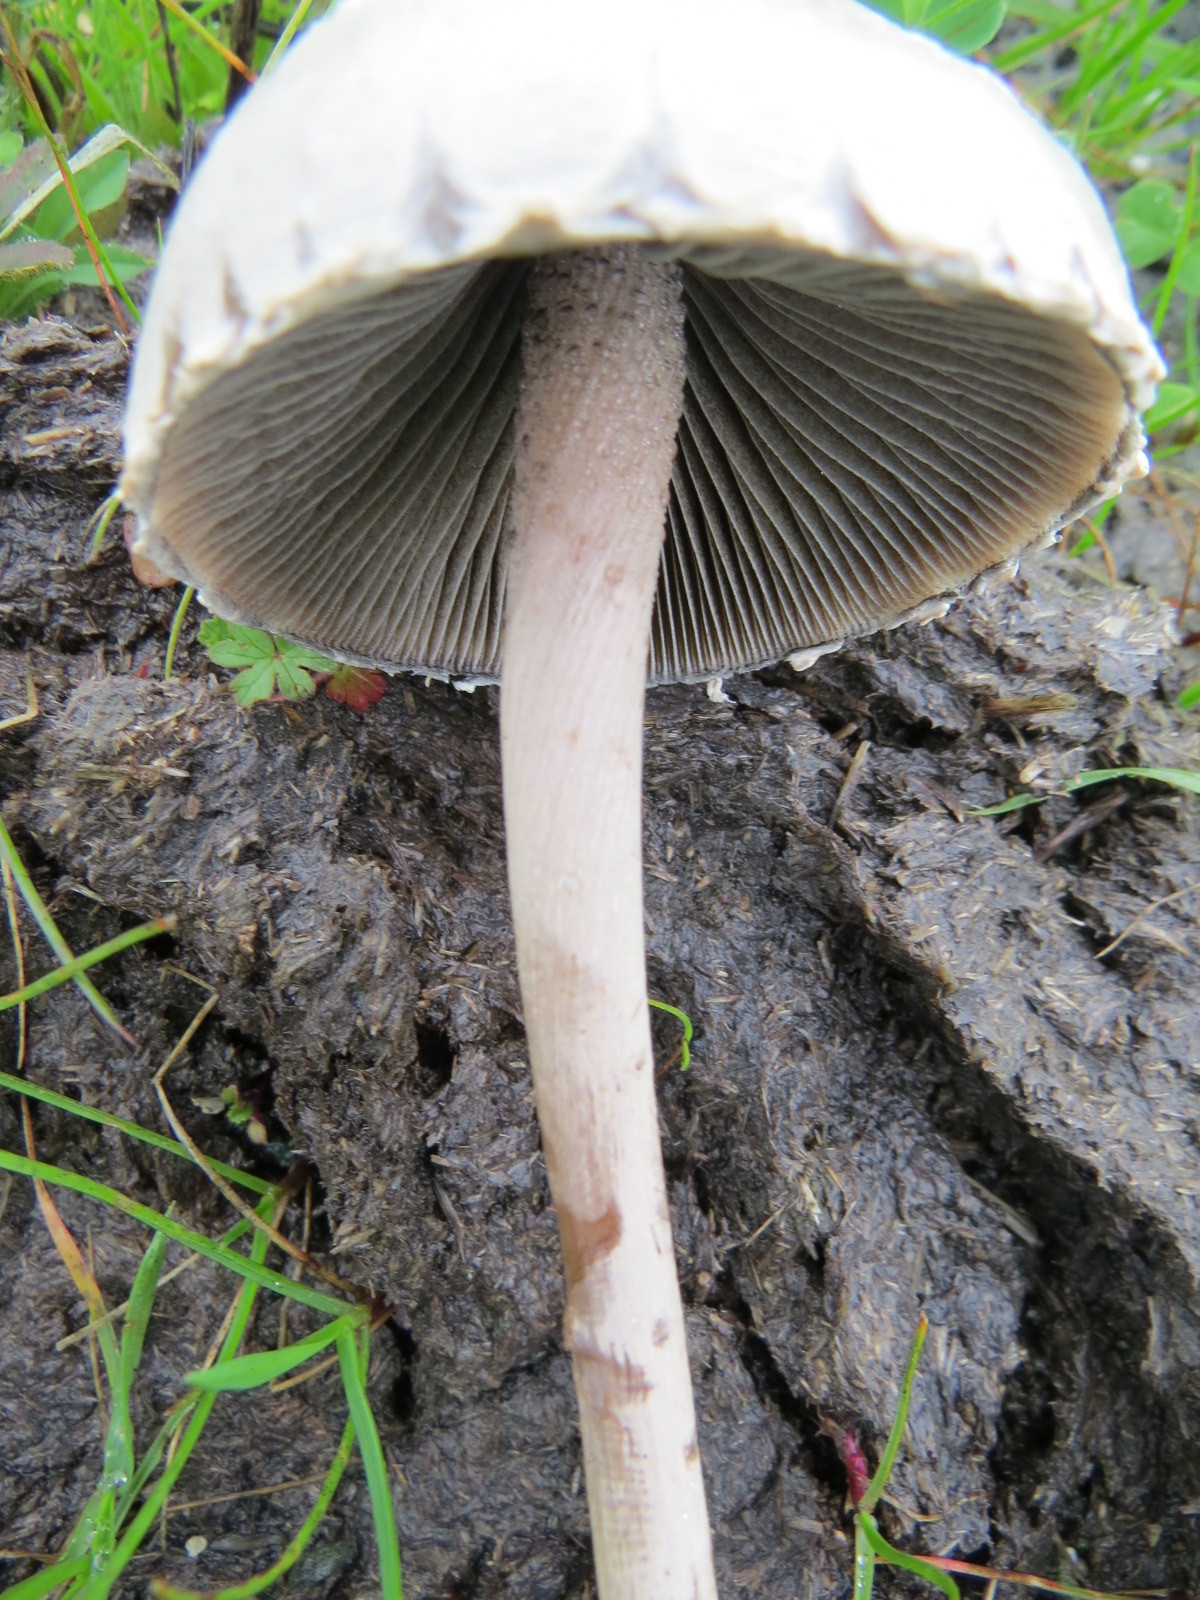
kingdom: Fungi
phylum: Basidiomycota
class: Agaricomycetes
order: Agaricales
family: Bolbitiaceae
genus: Panaeolus
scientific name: Panaeolus papilionaceus
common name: Petticoat mottlegill
